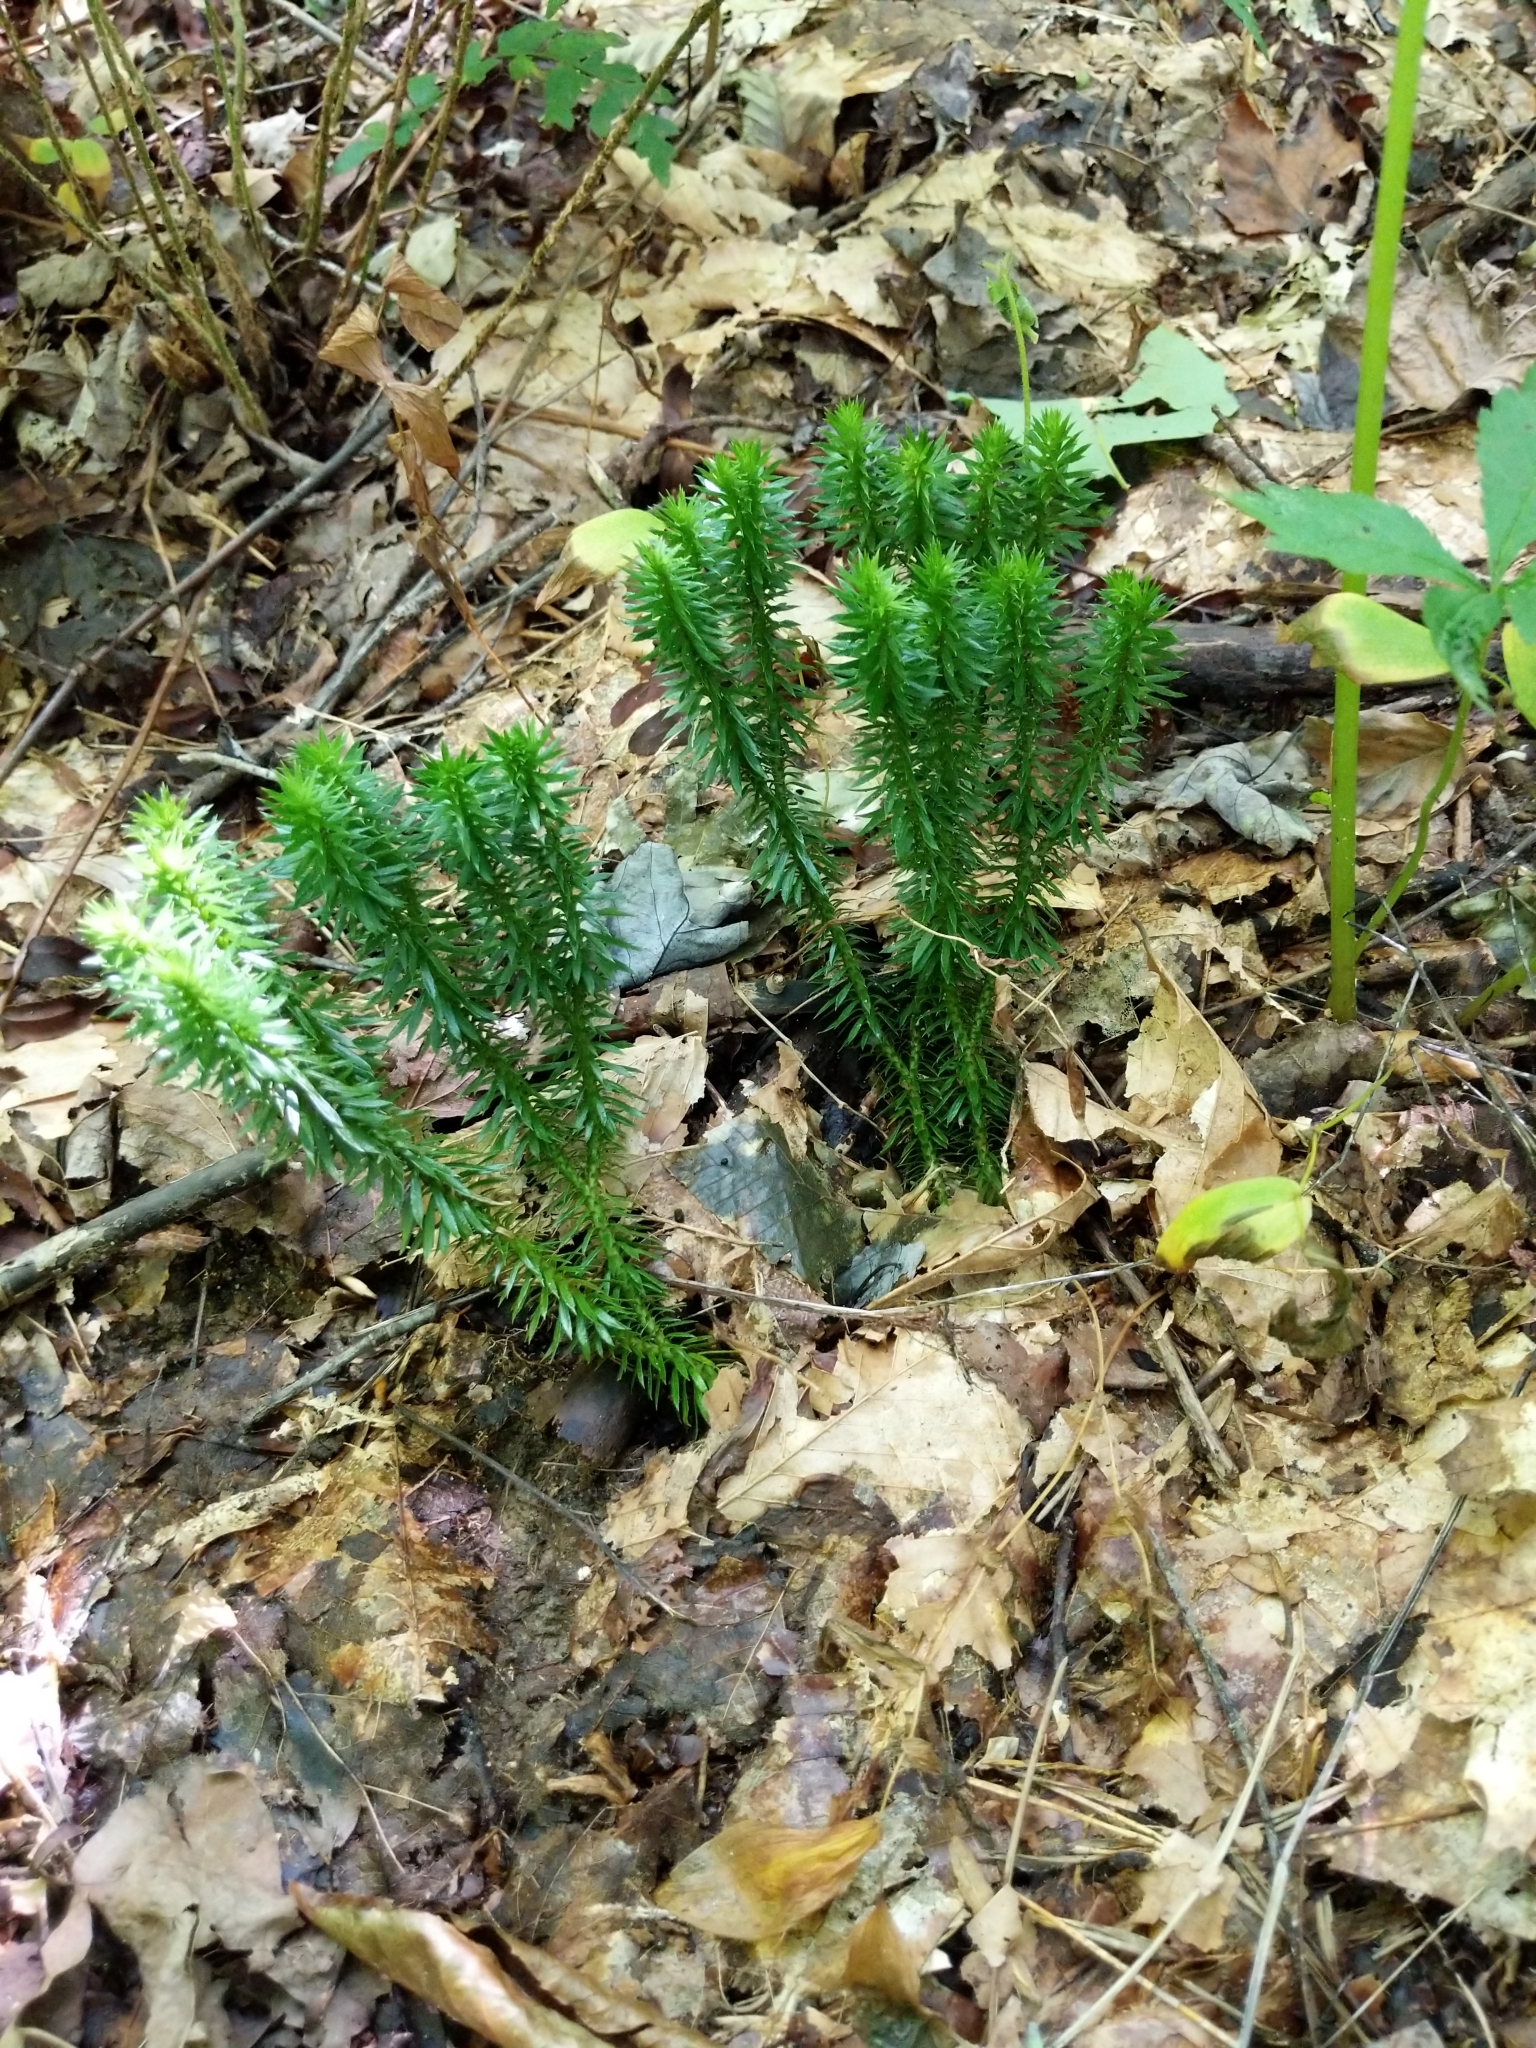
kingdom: Plantae
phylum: Tracheophyta
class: Lycopodiopsida
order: Lycopodiales
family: Lycopodiaceae
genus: Huperzia
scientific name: Huperzia lucidula
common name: Shining clubmoss
